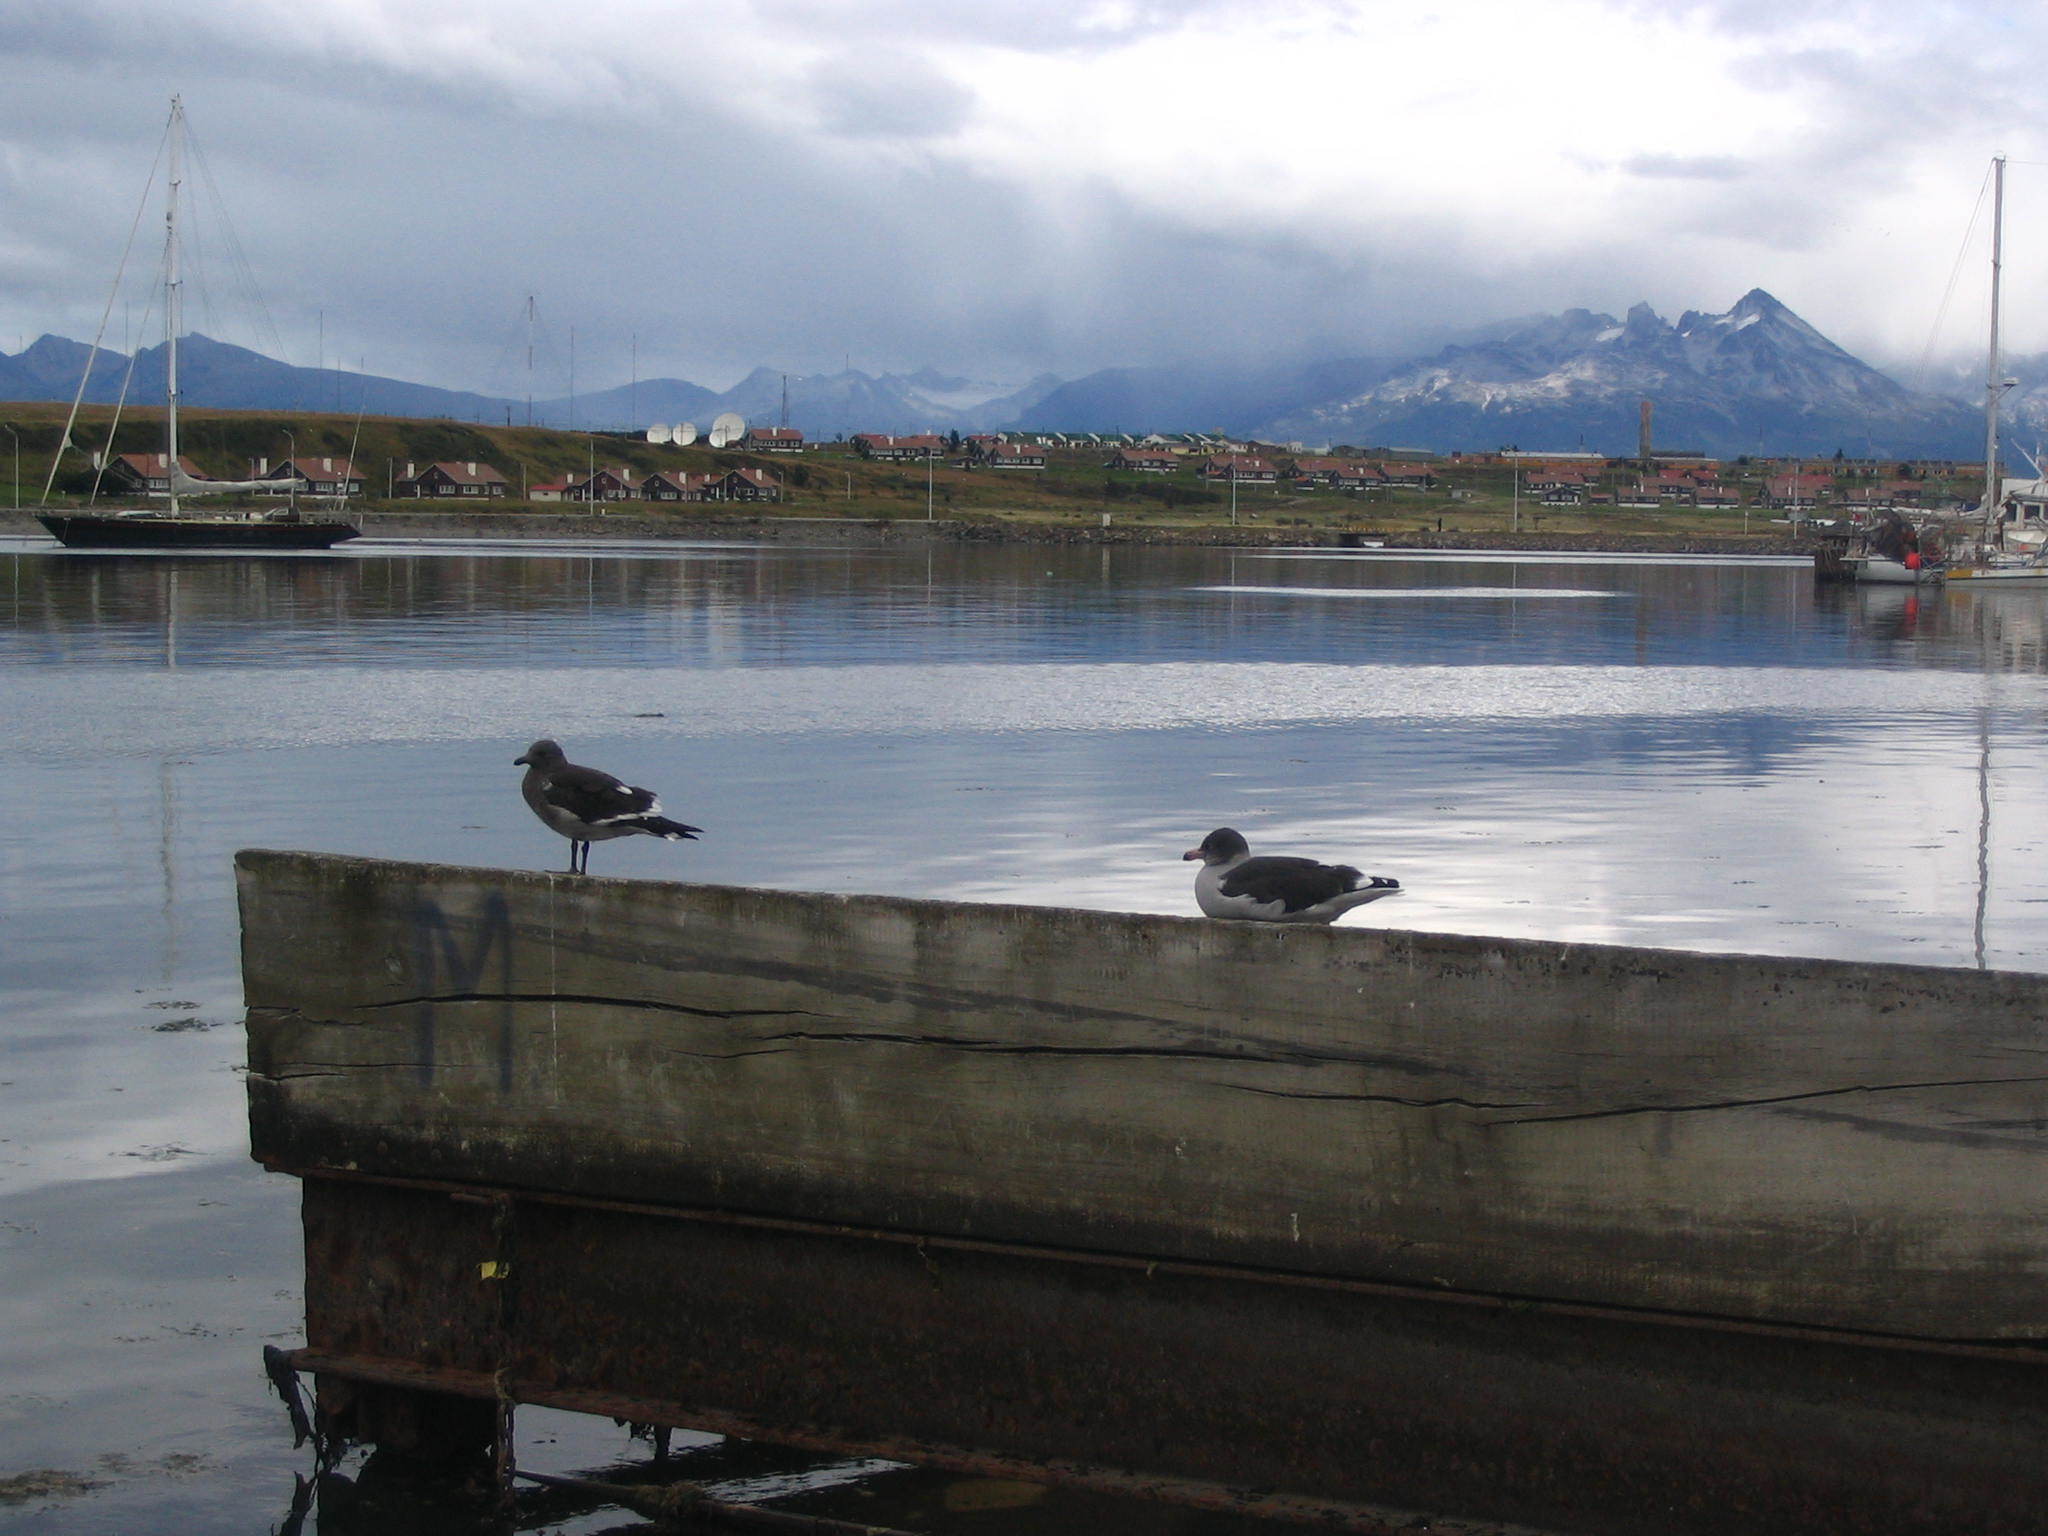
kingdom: Animalia
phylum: Chordata
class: Aves
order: Charadriiformes
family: Laridae
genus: Leucophaeus
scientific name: Leucophaeus scoresbii
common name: Dolphin gull
